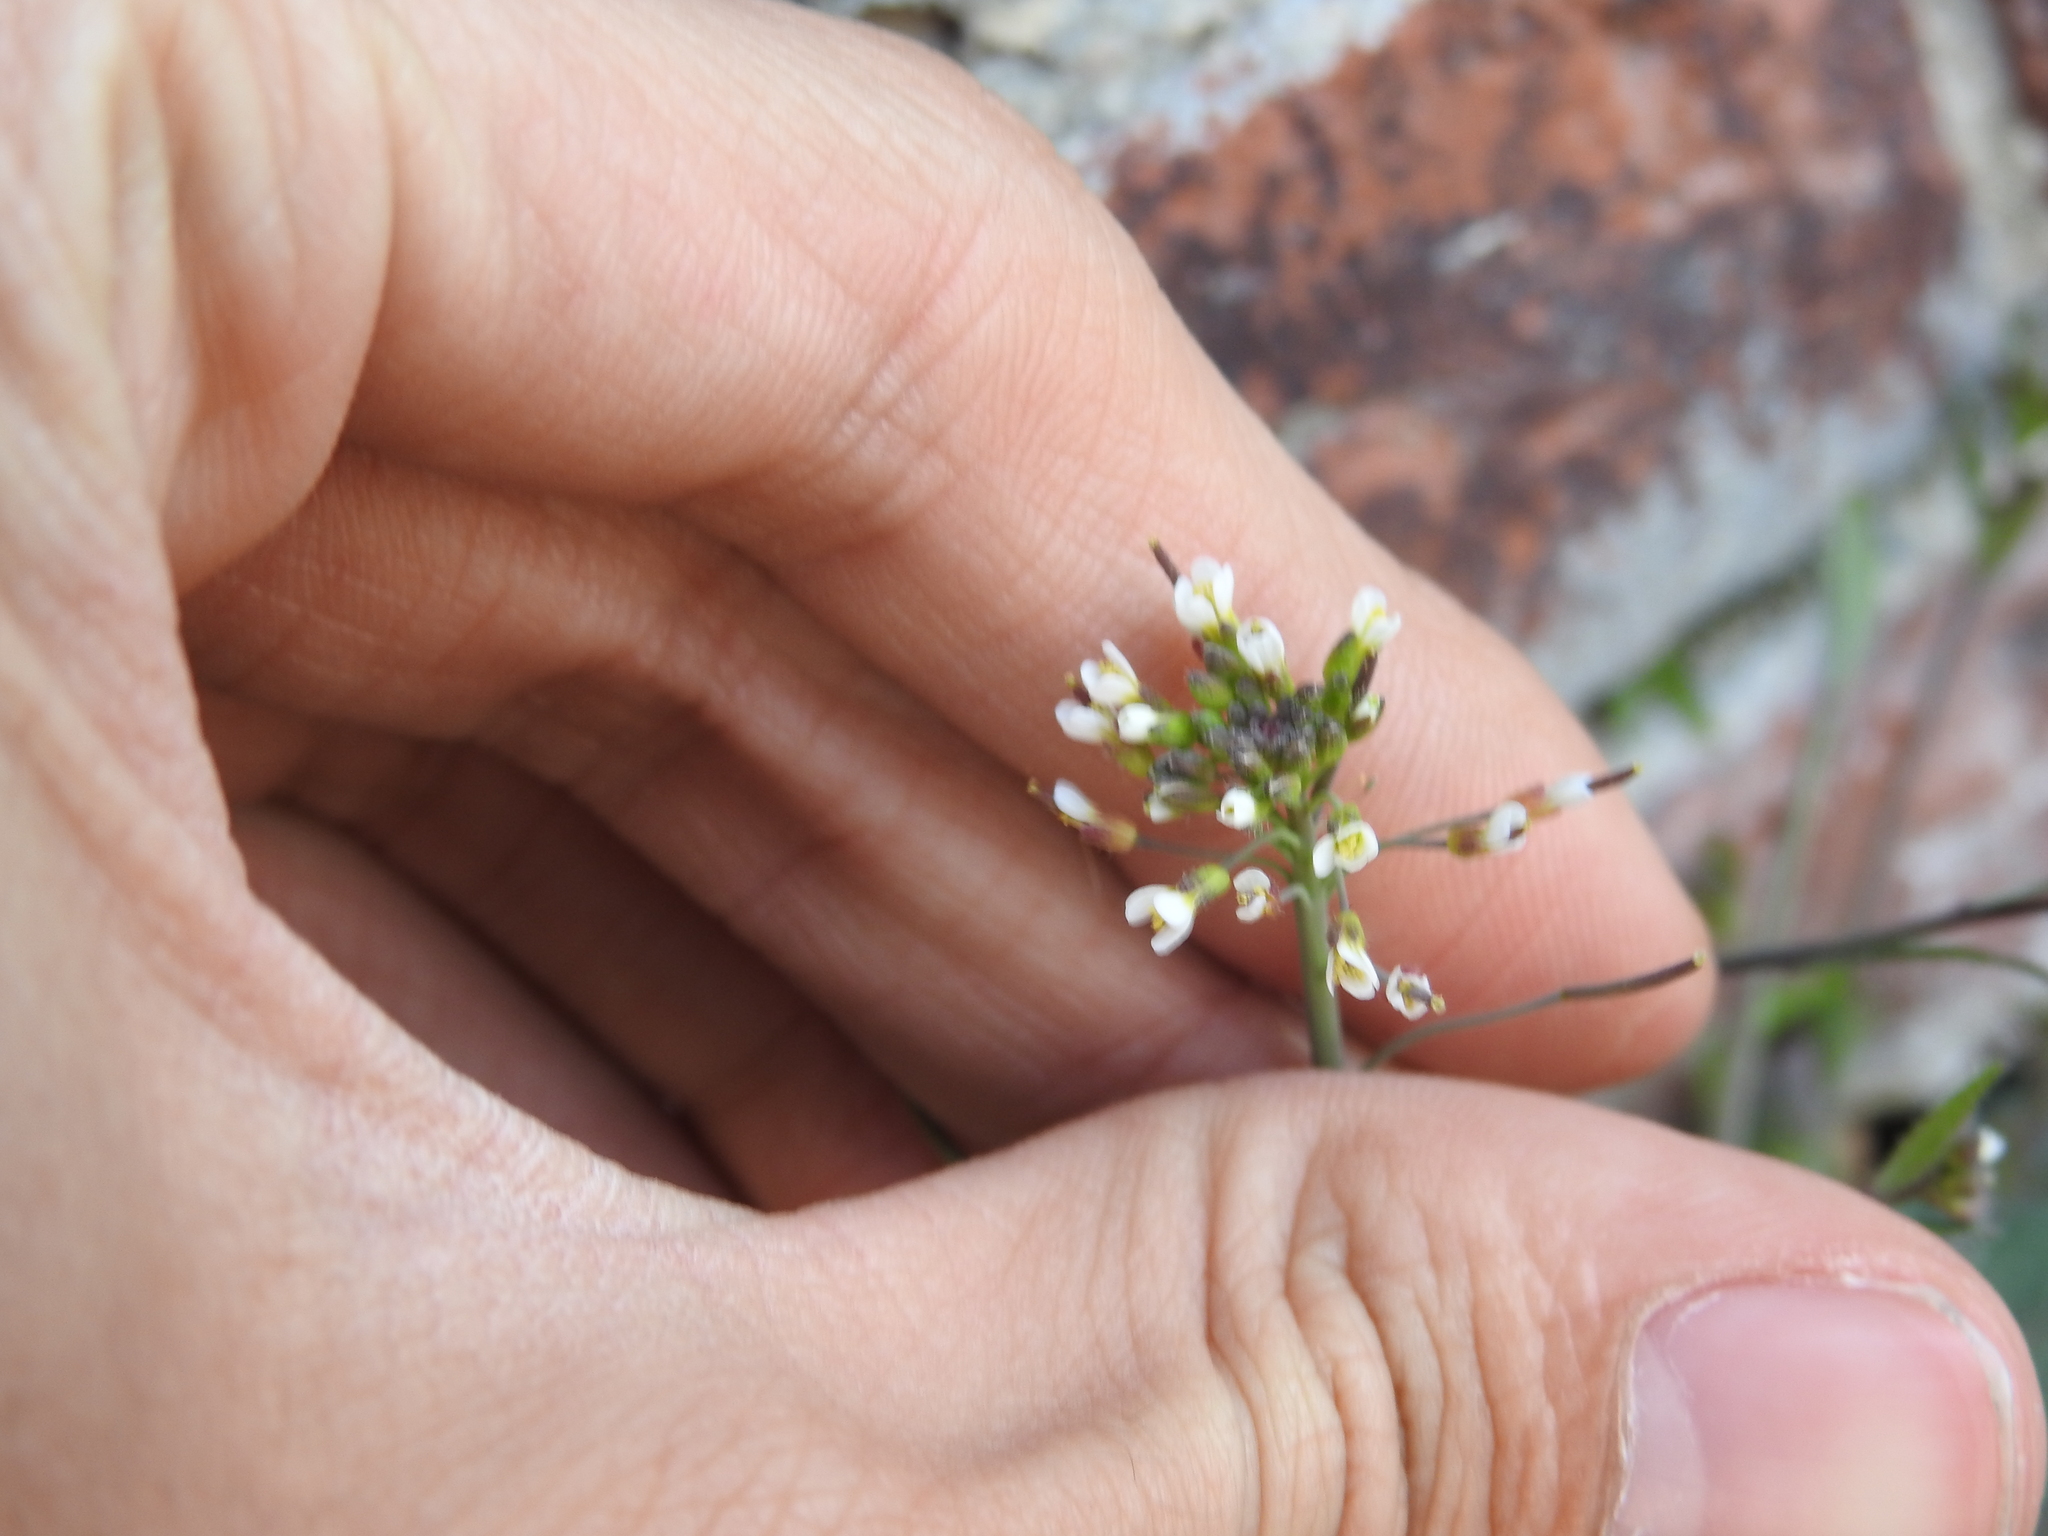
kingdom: Plantae
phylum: Tracheophyta
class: Magnoliopsida
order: Brassicales
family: Brassicaceae
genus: Arabidopsis
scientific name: Arabidopsis thaliana
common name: Thale cress
